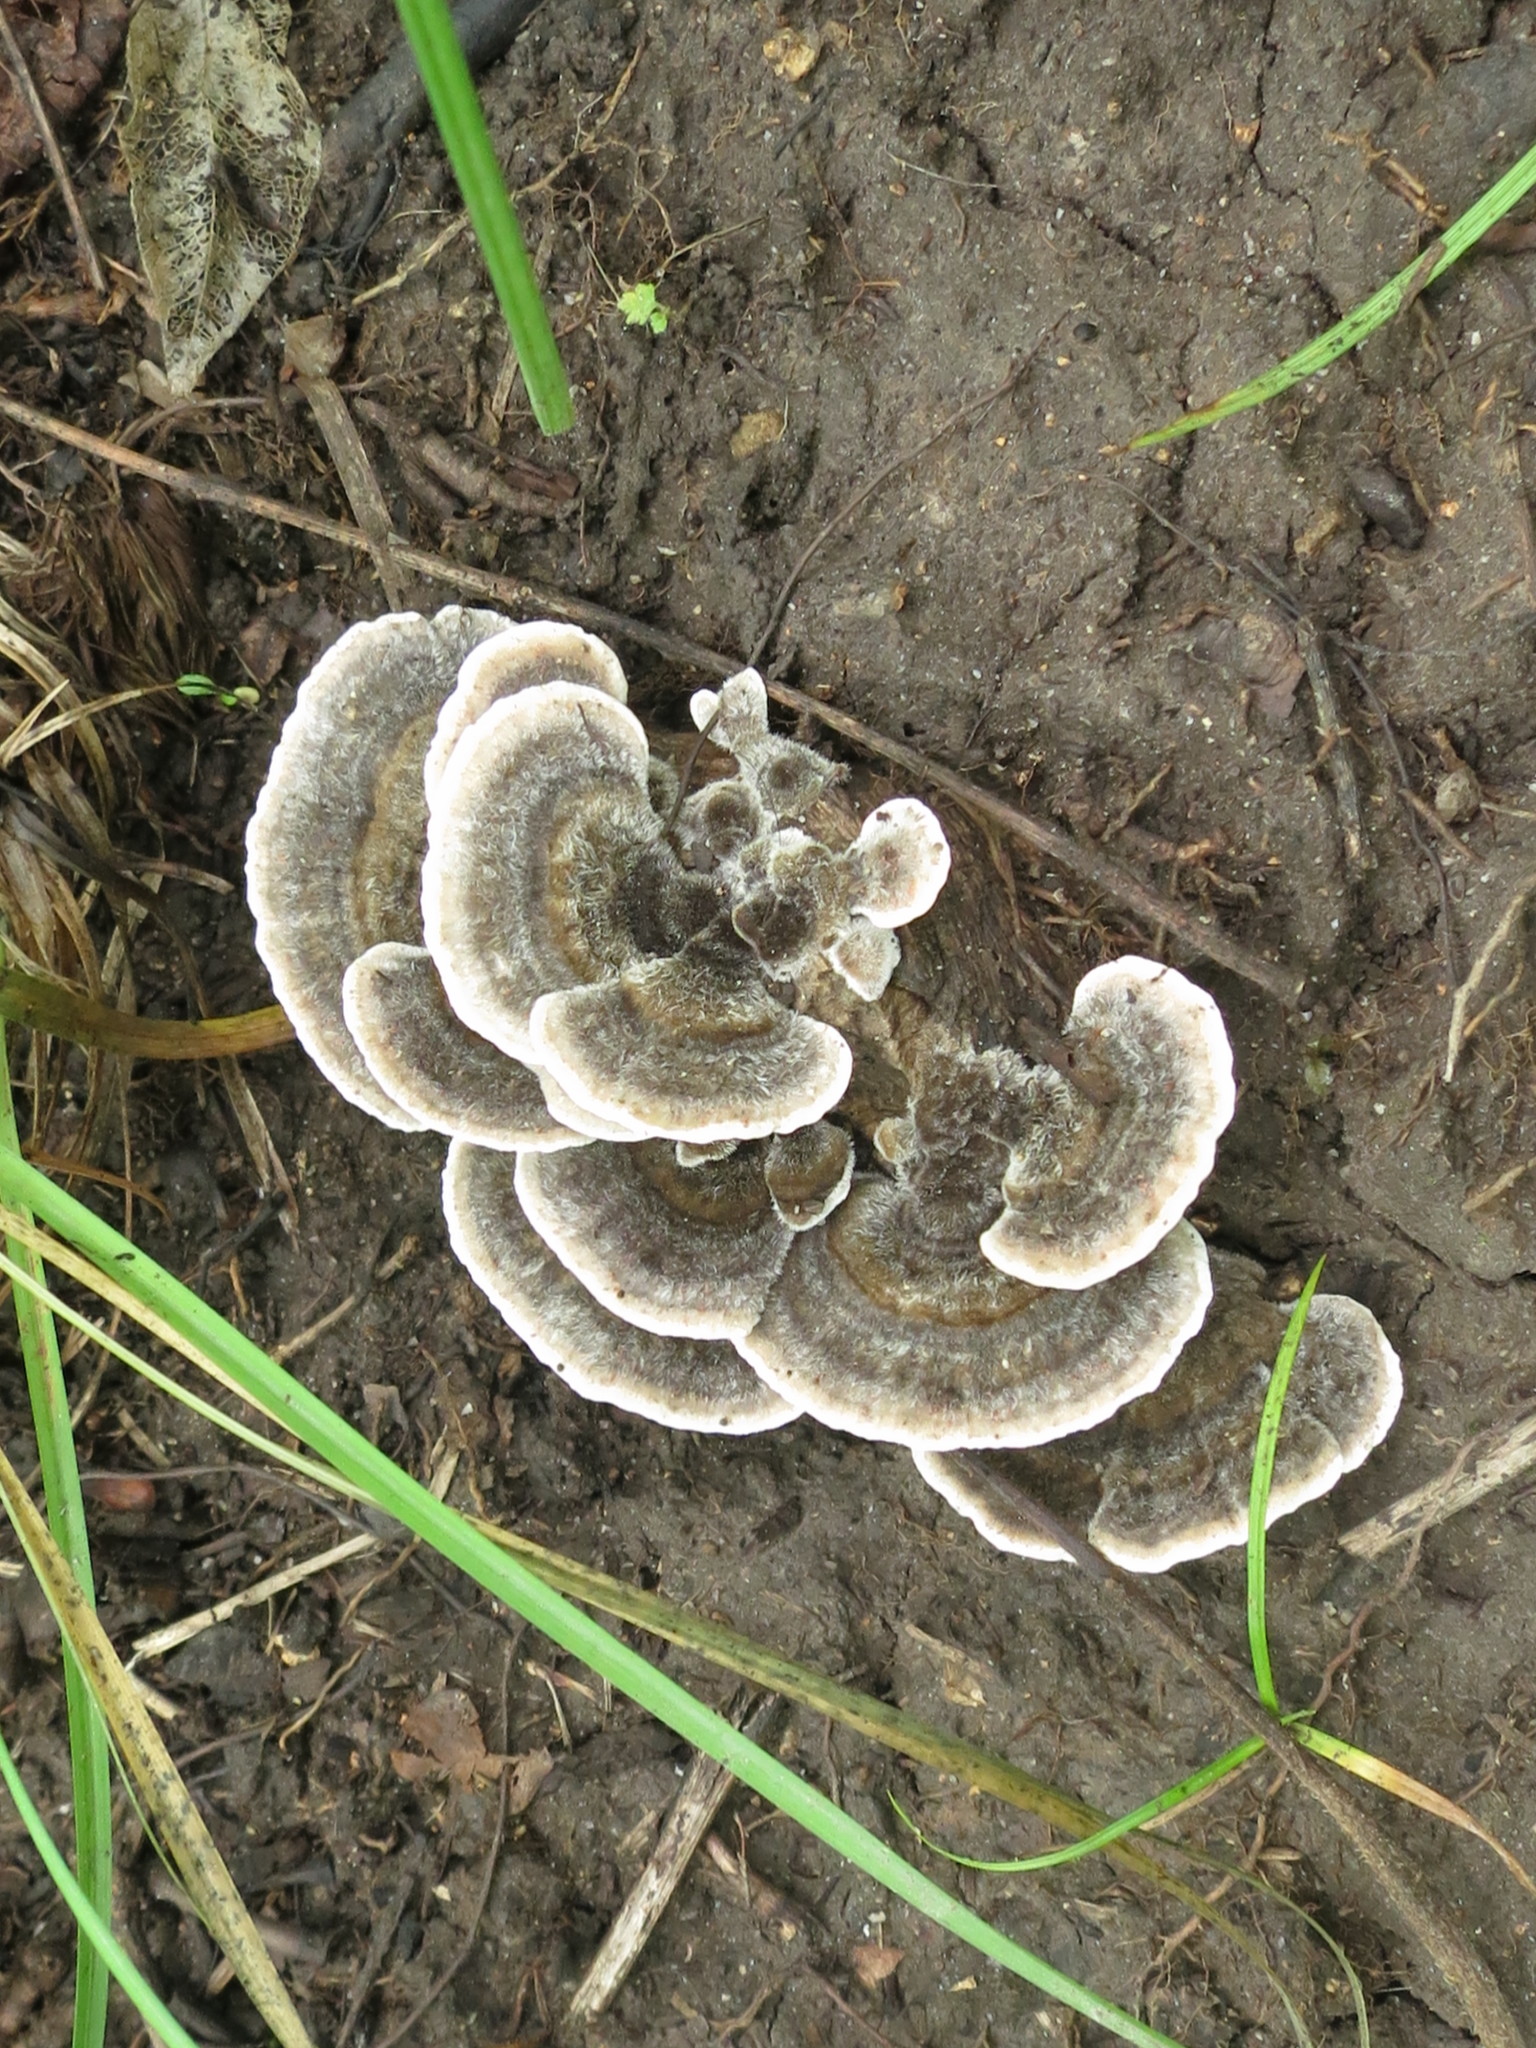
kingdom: Fungi
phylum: Basidiomycota
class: Agaricomycetes
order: Polyporales
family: Polyporaceae
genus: Trametes
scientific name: Trametes versicolor
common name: Turkeytail
